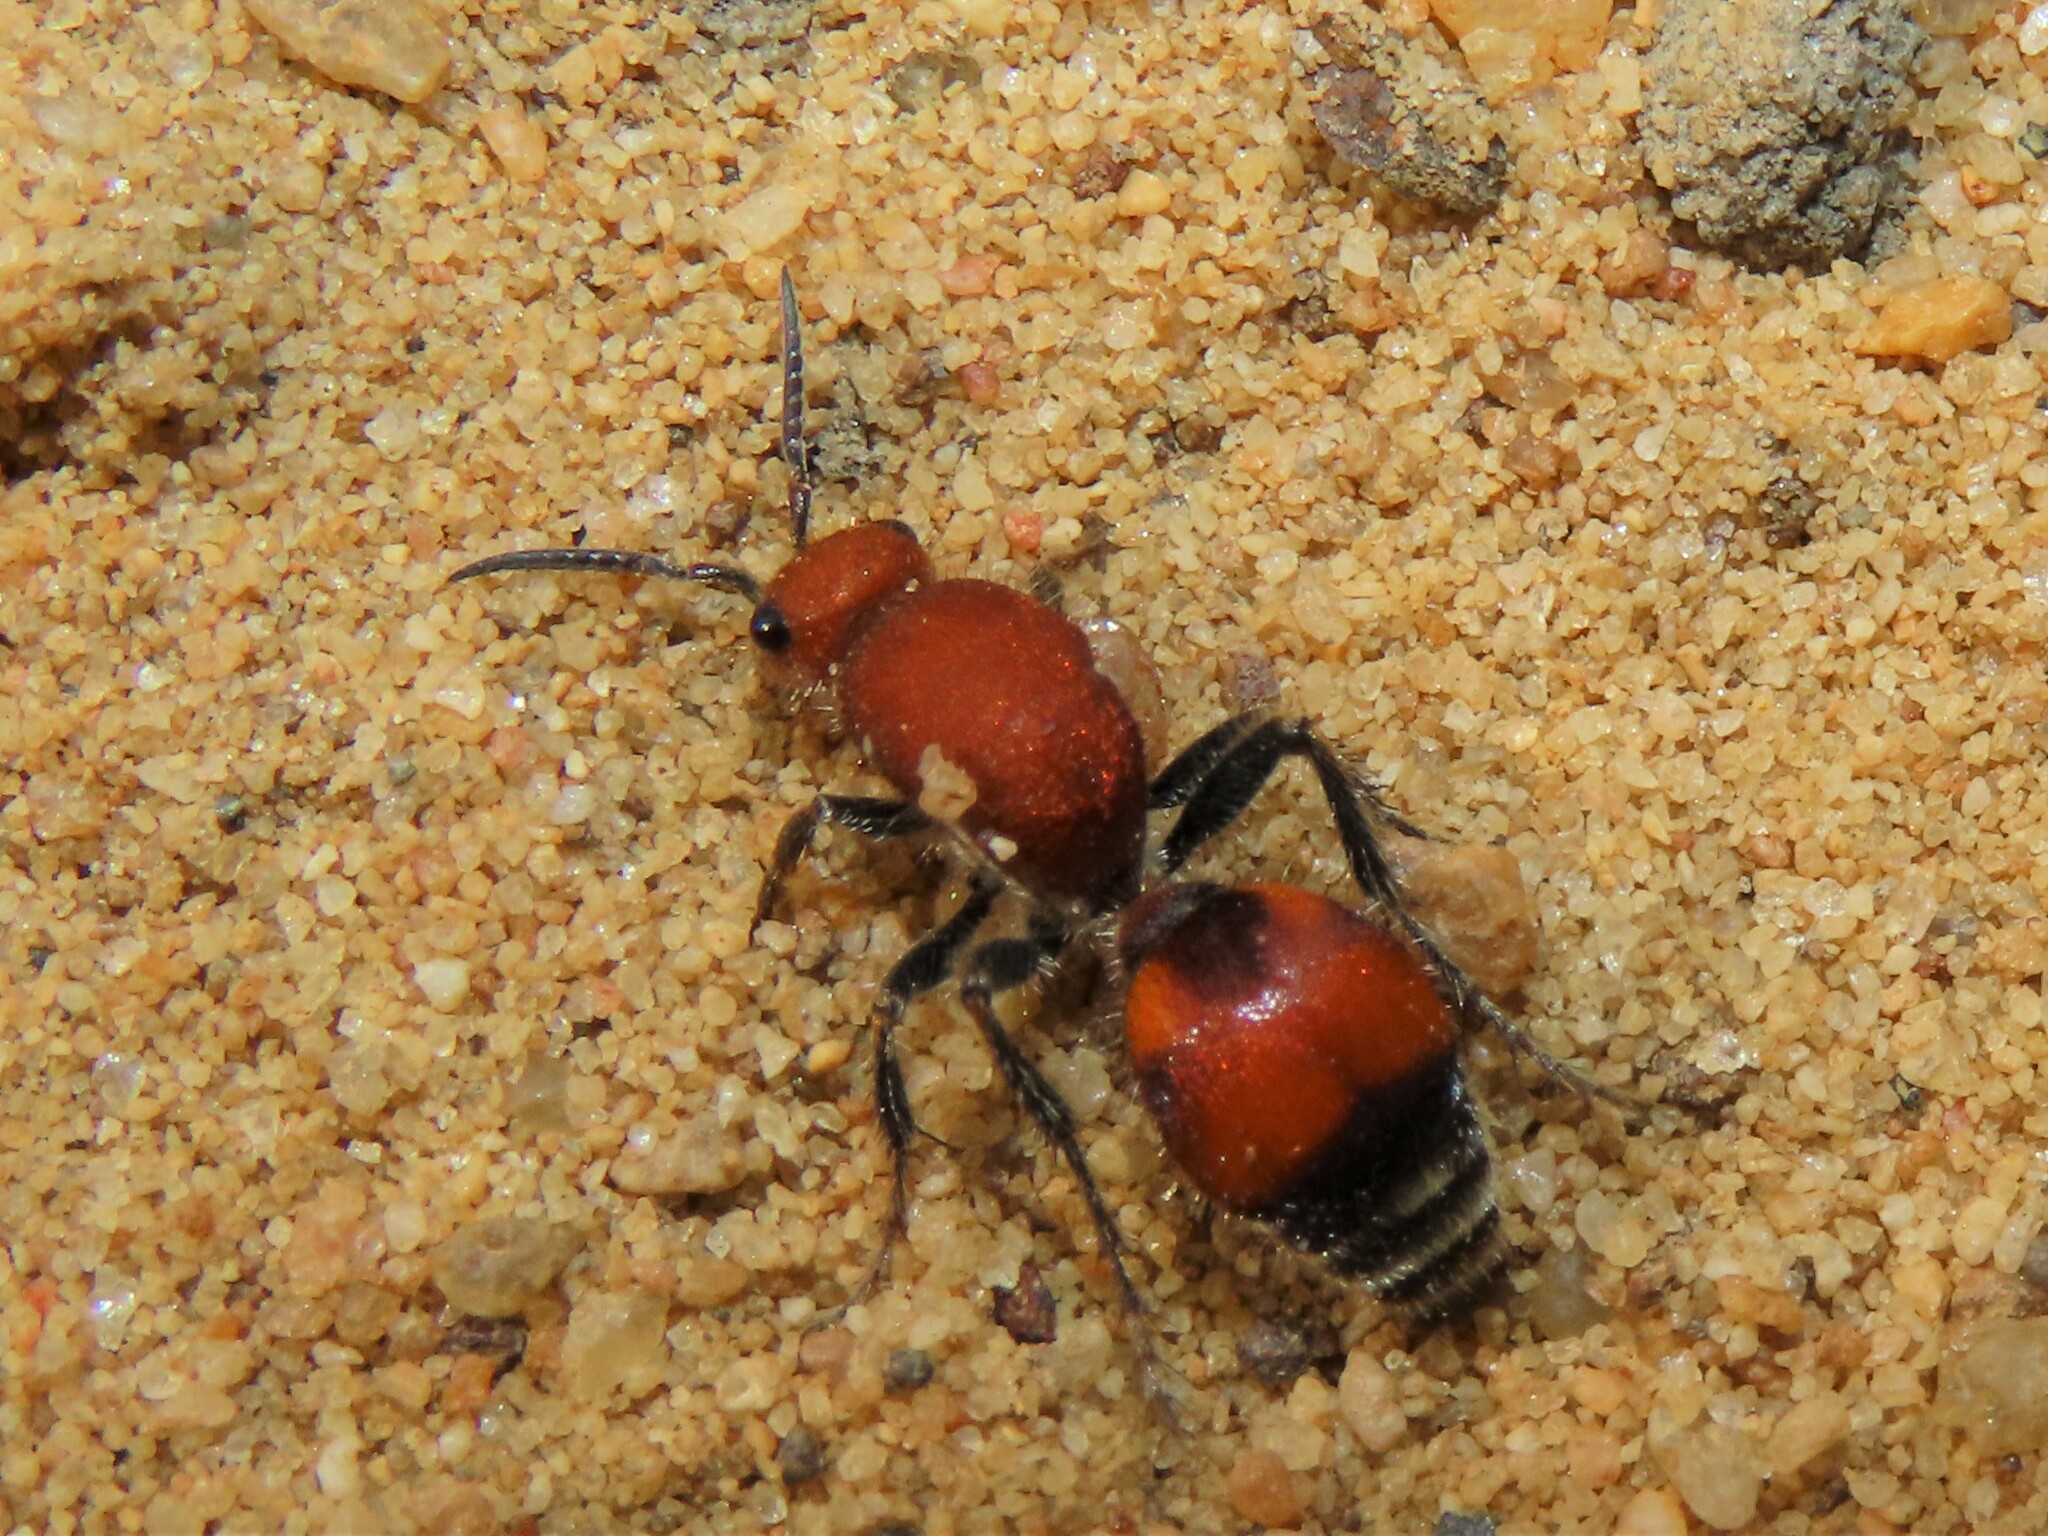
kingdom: Animalia
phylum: Arthropoda
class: Insecta
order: Hymenoptera
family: Mutillidae
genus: Dasymutilla
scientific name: Dasymutilla
